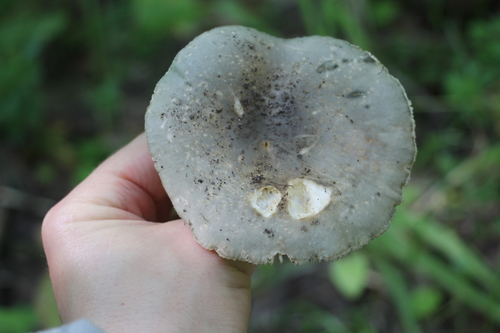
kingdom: Fungi
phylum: Basidiomycota
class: Agaricomycetes
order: Russulales
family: Russulaceae
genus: Russula
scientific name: Russula vesca
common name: Bare-toothed russula
